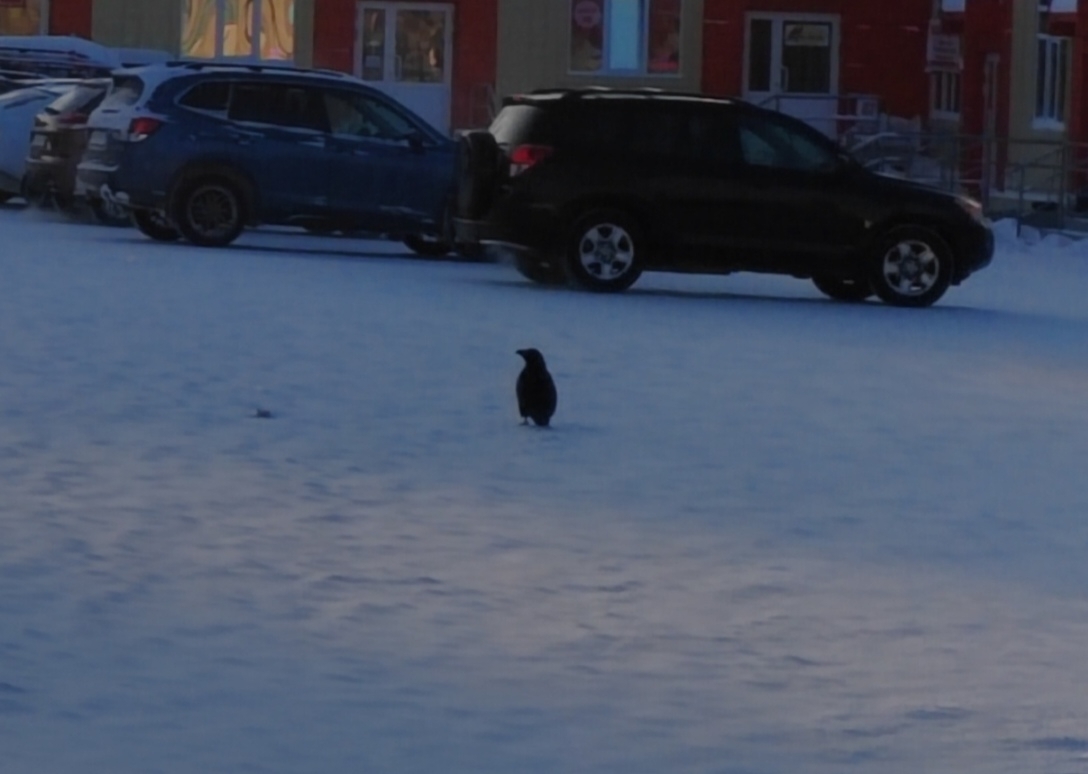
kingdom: Animalia
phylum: Chordata
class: Aves
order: Passeriformes
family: Corvidae
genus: Corvus
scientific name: Corvus corax
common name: Common raven
